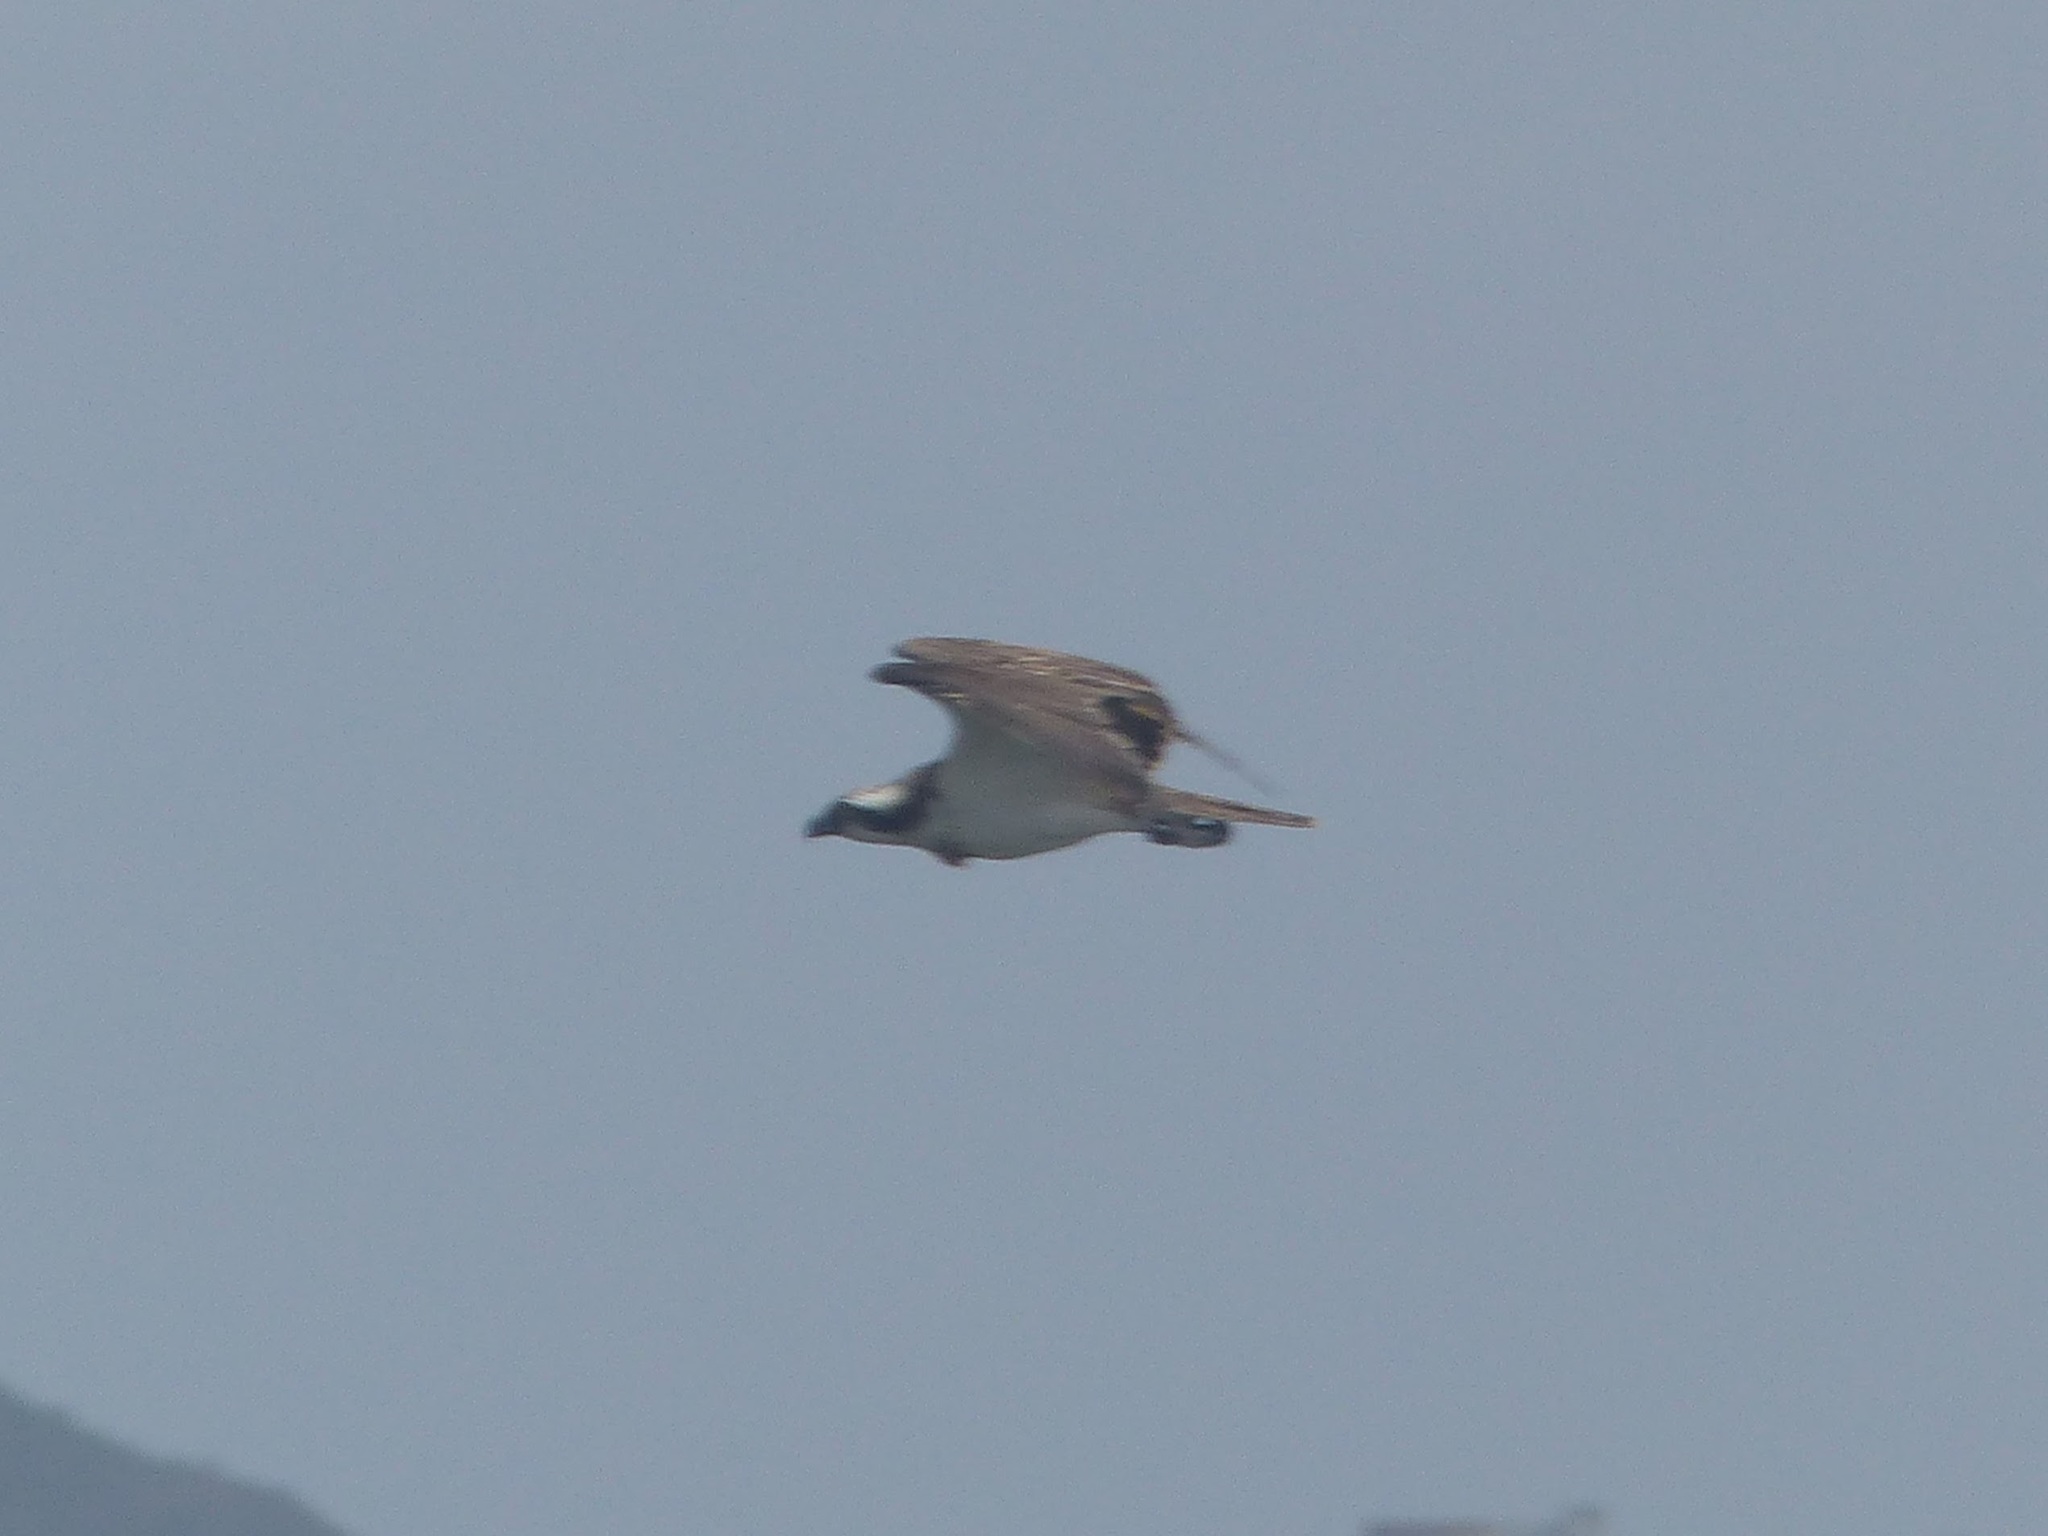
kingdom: Animalia
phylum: Chordata
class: Aves
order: Accipitriformes
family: Pandionidae
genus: Pandion
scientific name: Pandion haliaetus
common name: Osprey
